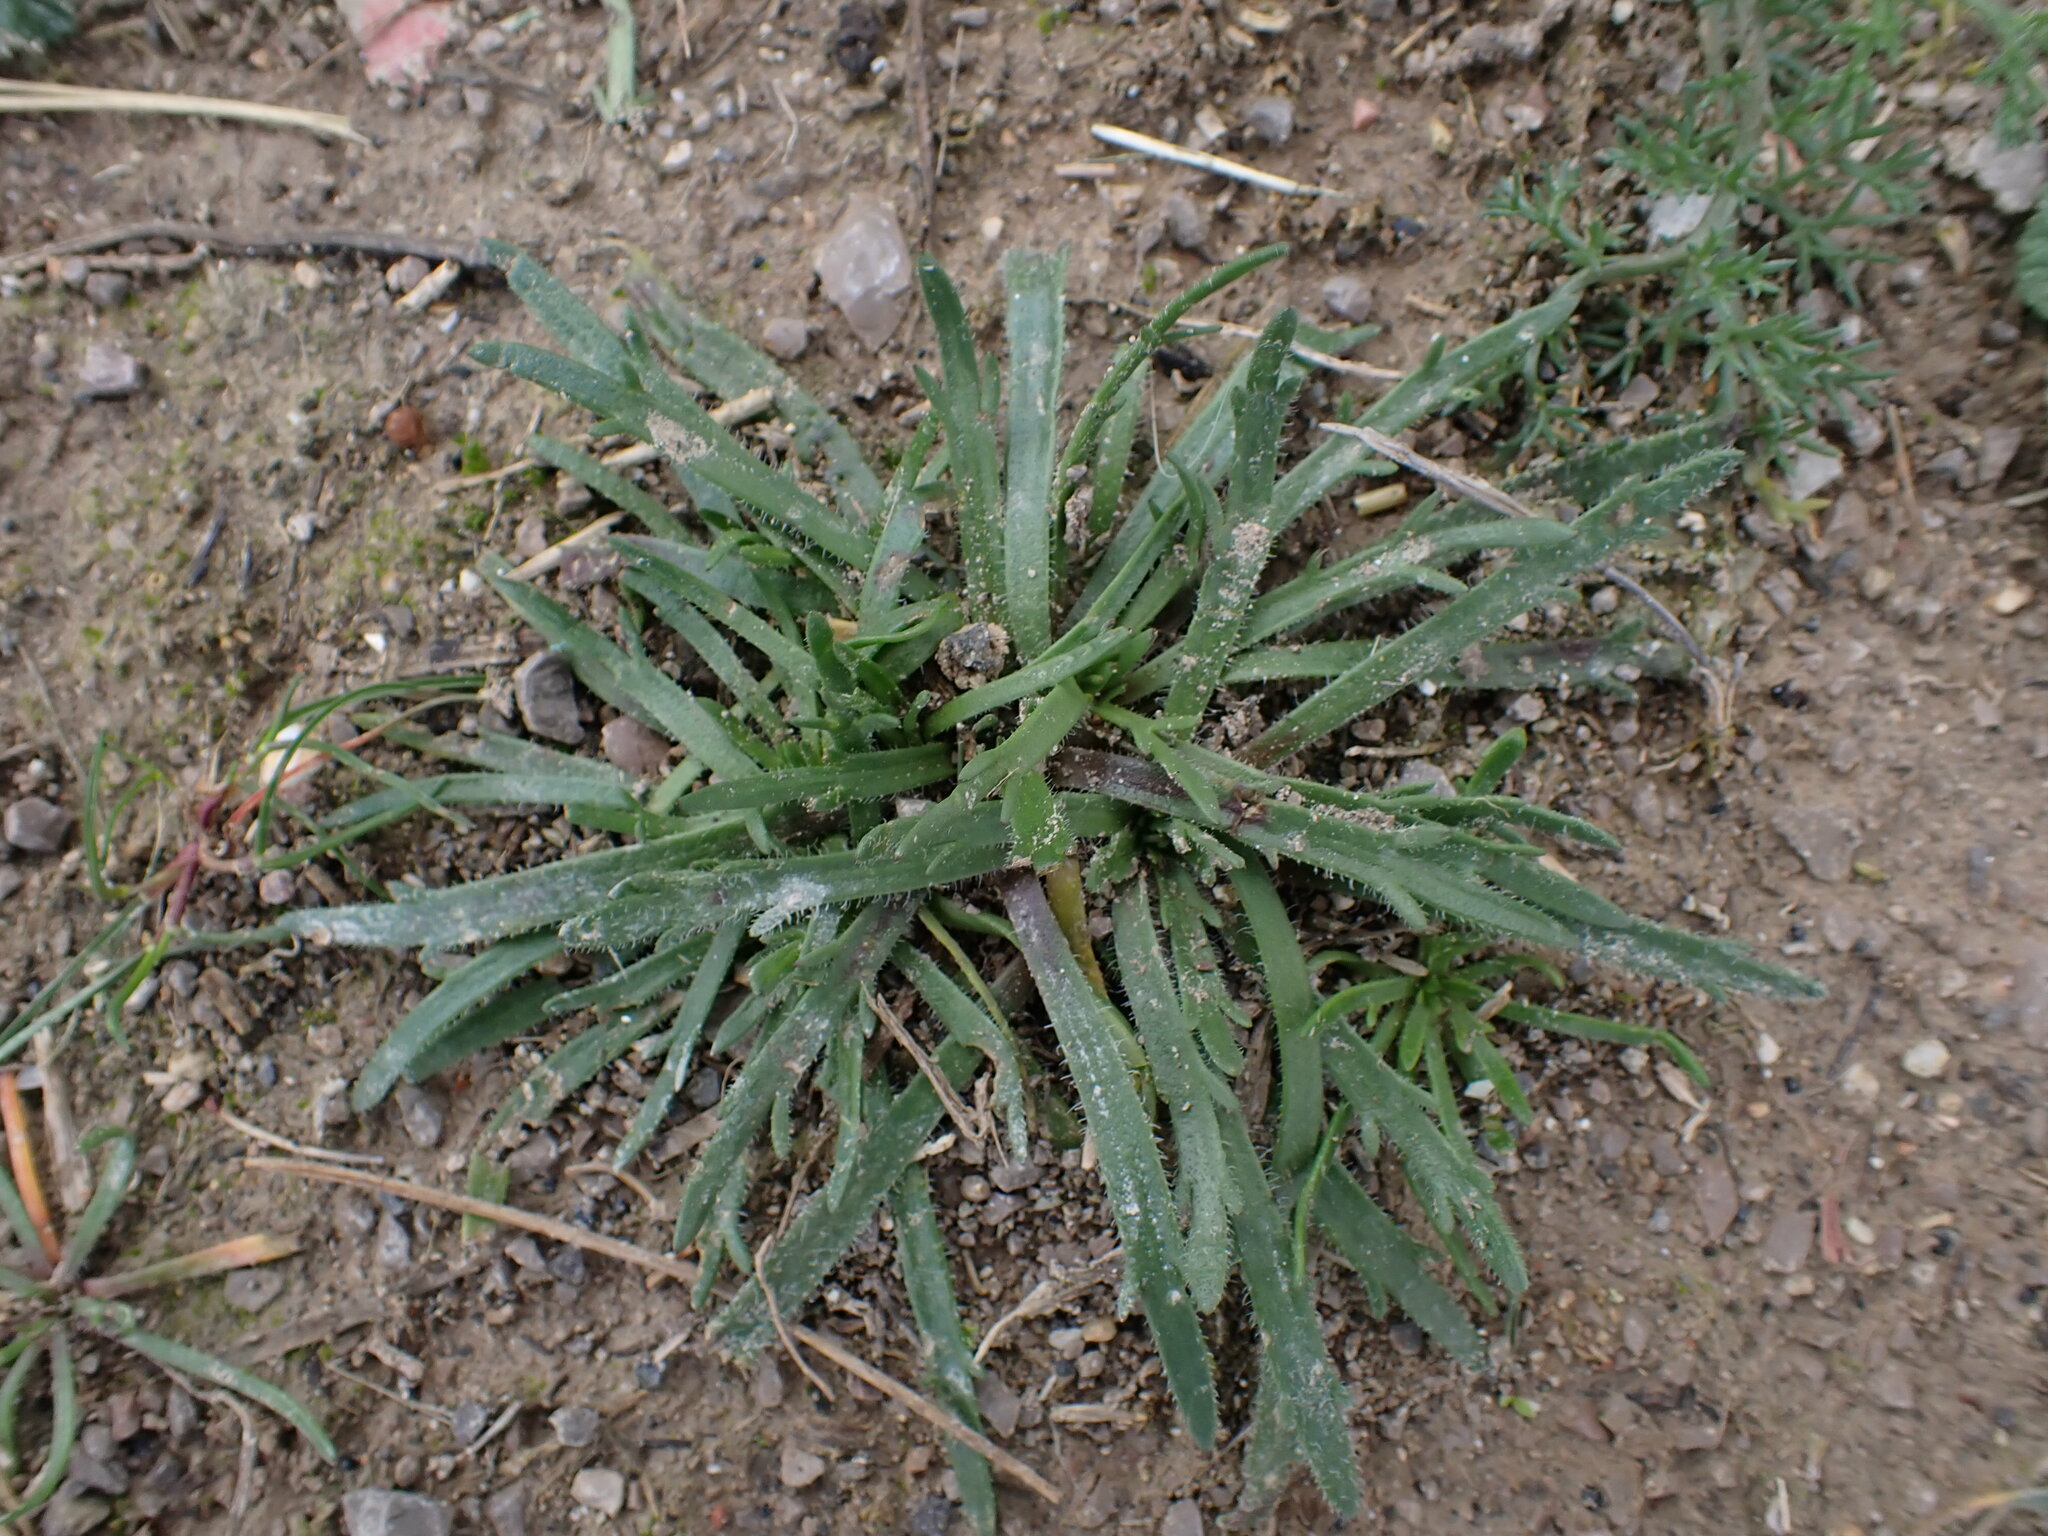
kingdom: Plantae
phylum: Tracheophyta
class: Magnoliopsida
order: Lamiales
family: Plantaginaceae
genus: Plantago
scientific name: Plantago coronopus
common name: Buck's-horn plantain
